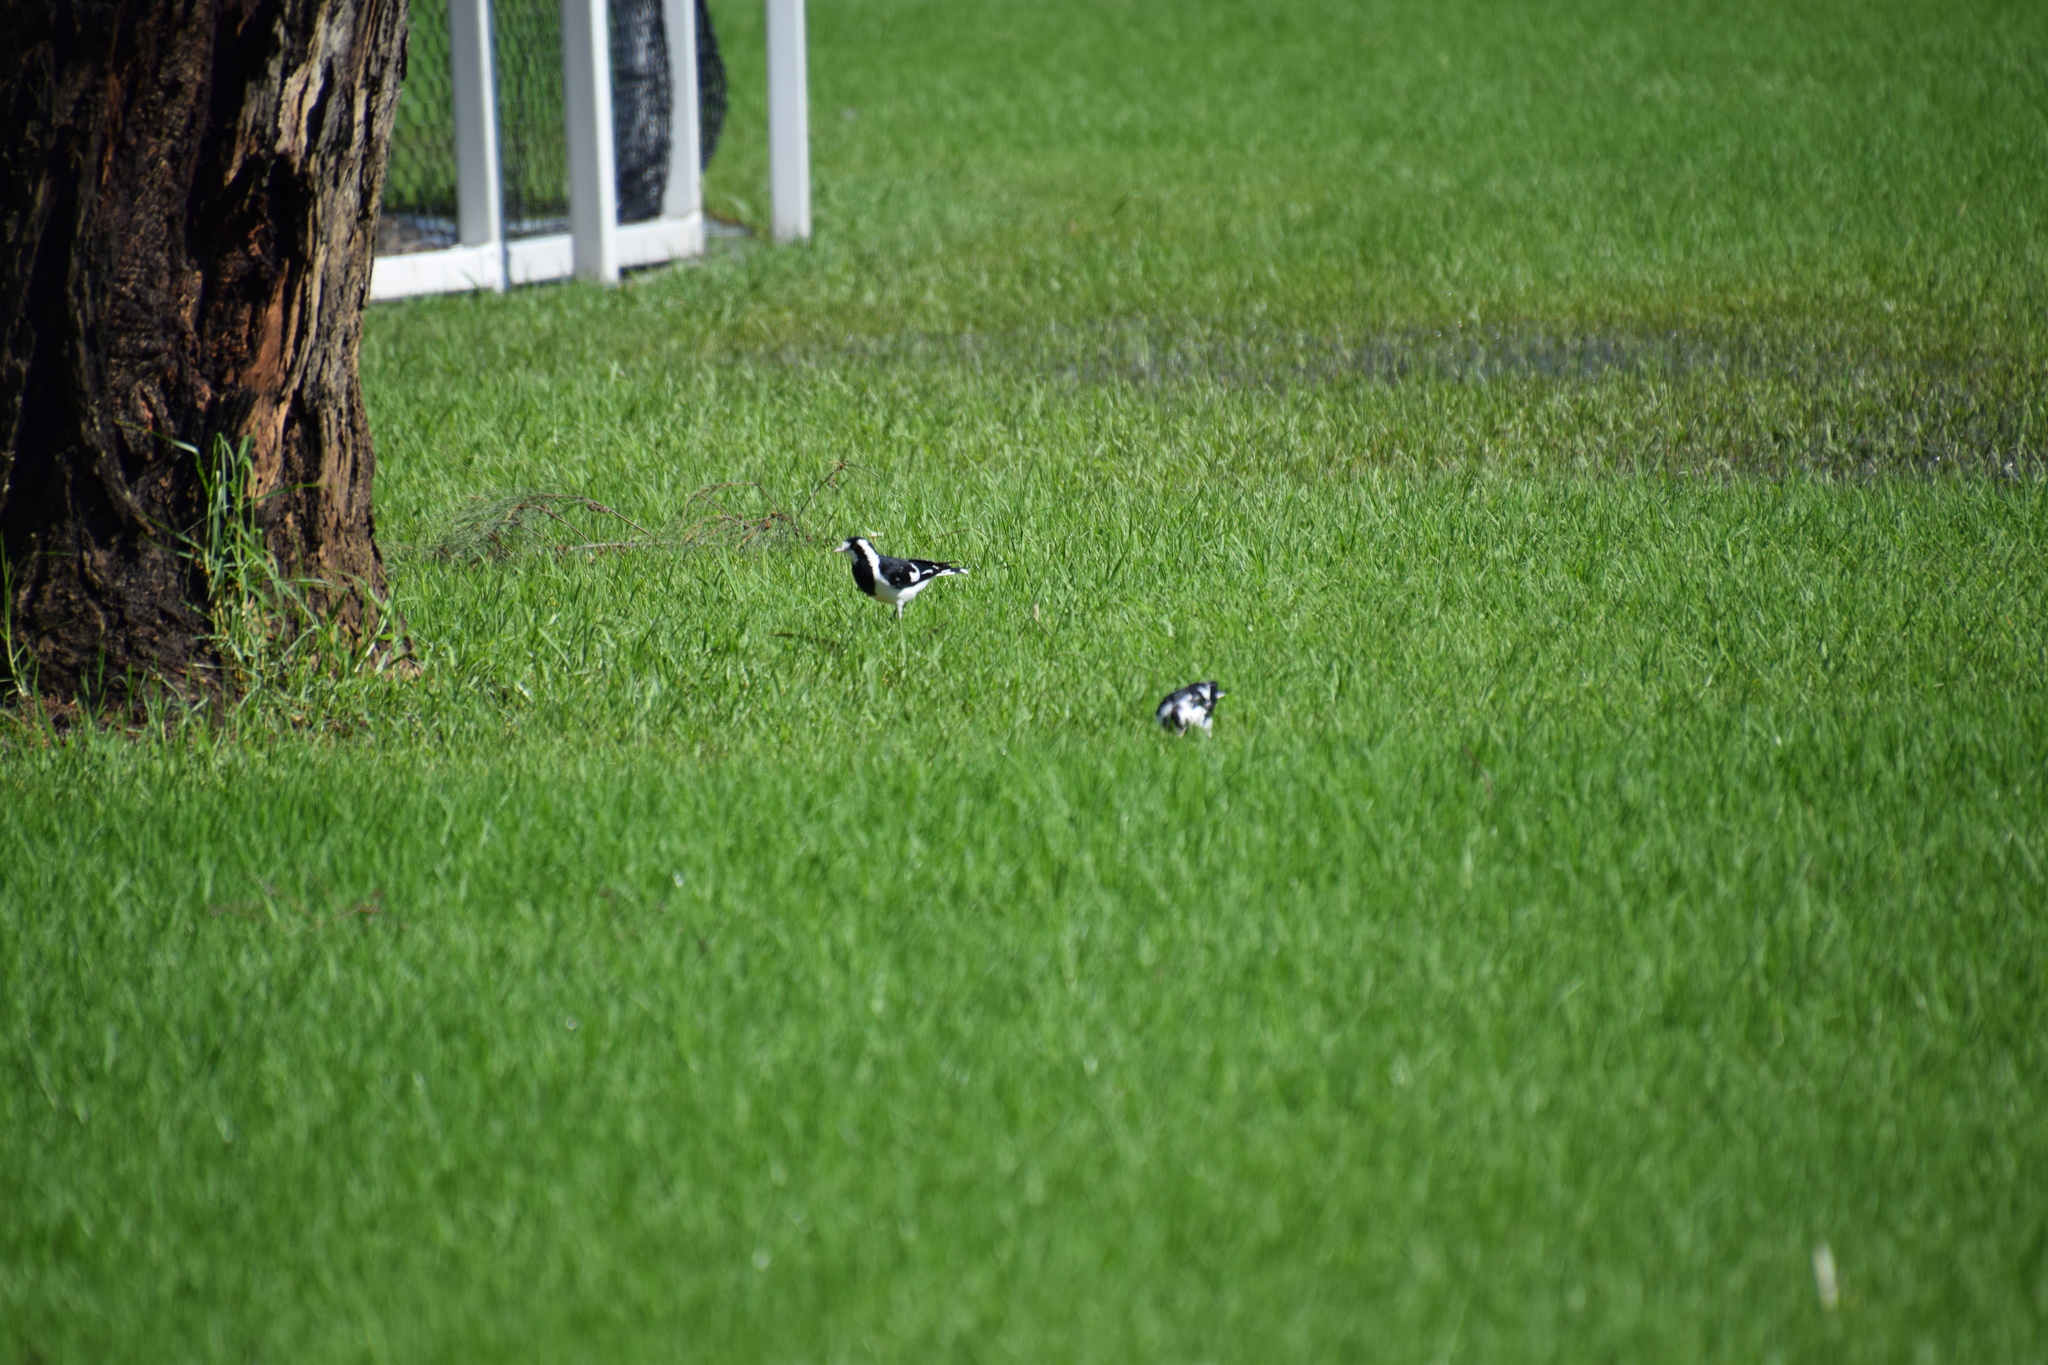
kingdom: Animalia
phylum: Chordata
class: Aves
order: Passeriformes
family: Monarchidae
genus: Grallina
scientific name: Grallina cyanoleuca
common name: Magpie-lark
